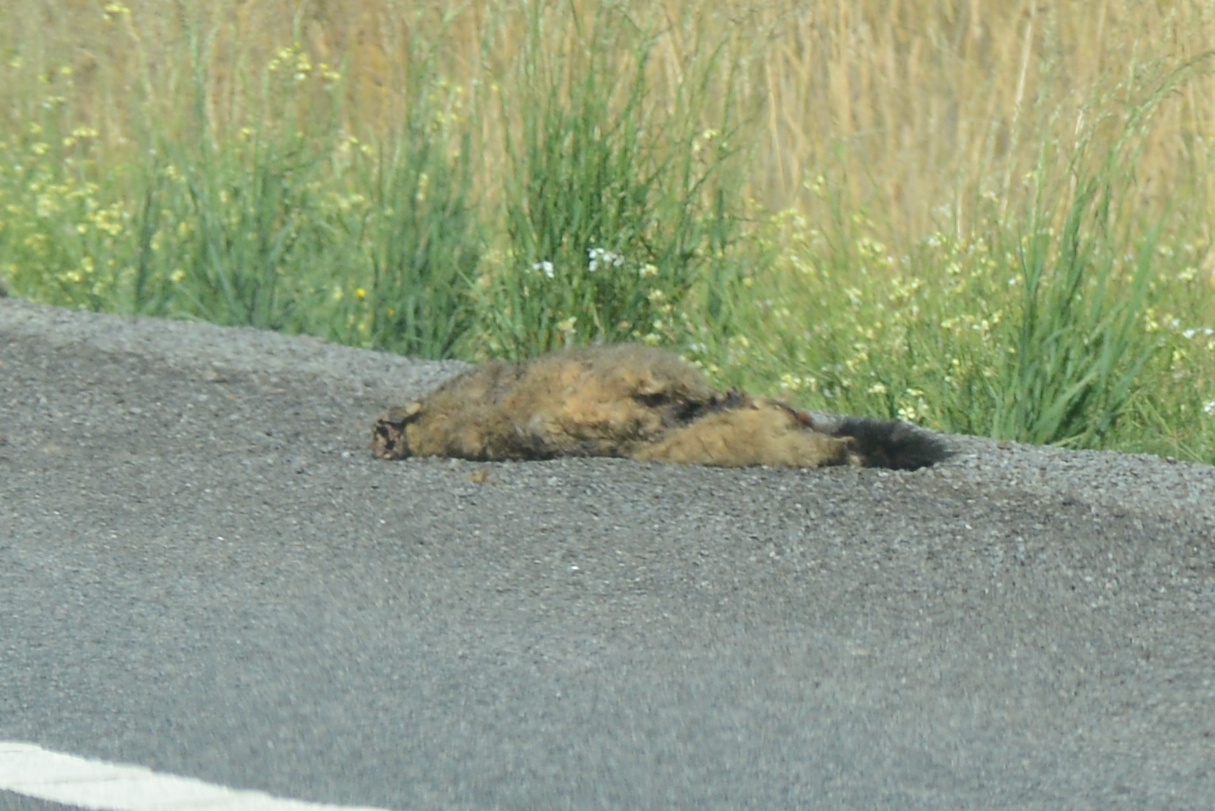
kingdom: Animalia
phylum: Chordata
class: Mammalia
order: Diprotodontia
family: Phalangeridae
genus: Trichosurus
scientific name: Trichosurus vulpecula
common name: Common brushtail
